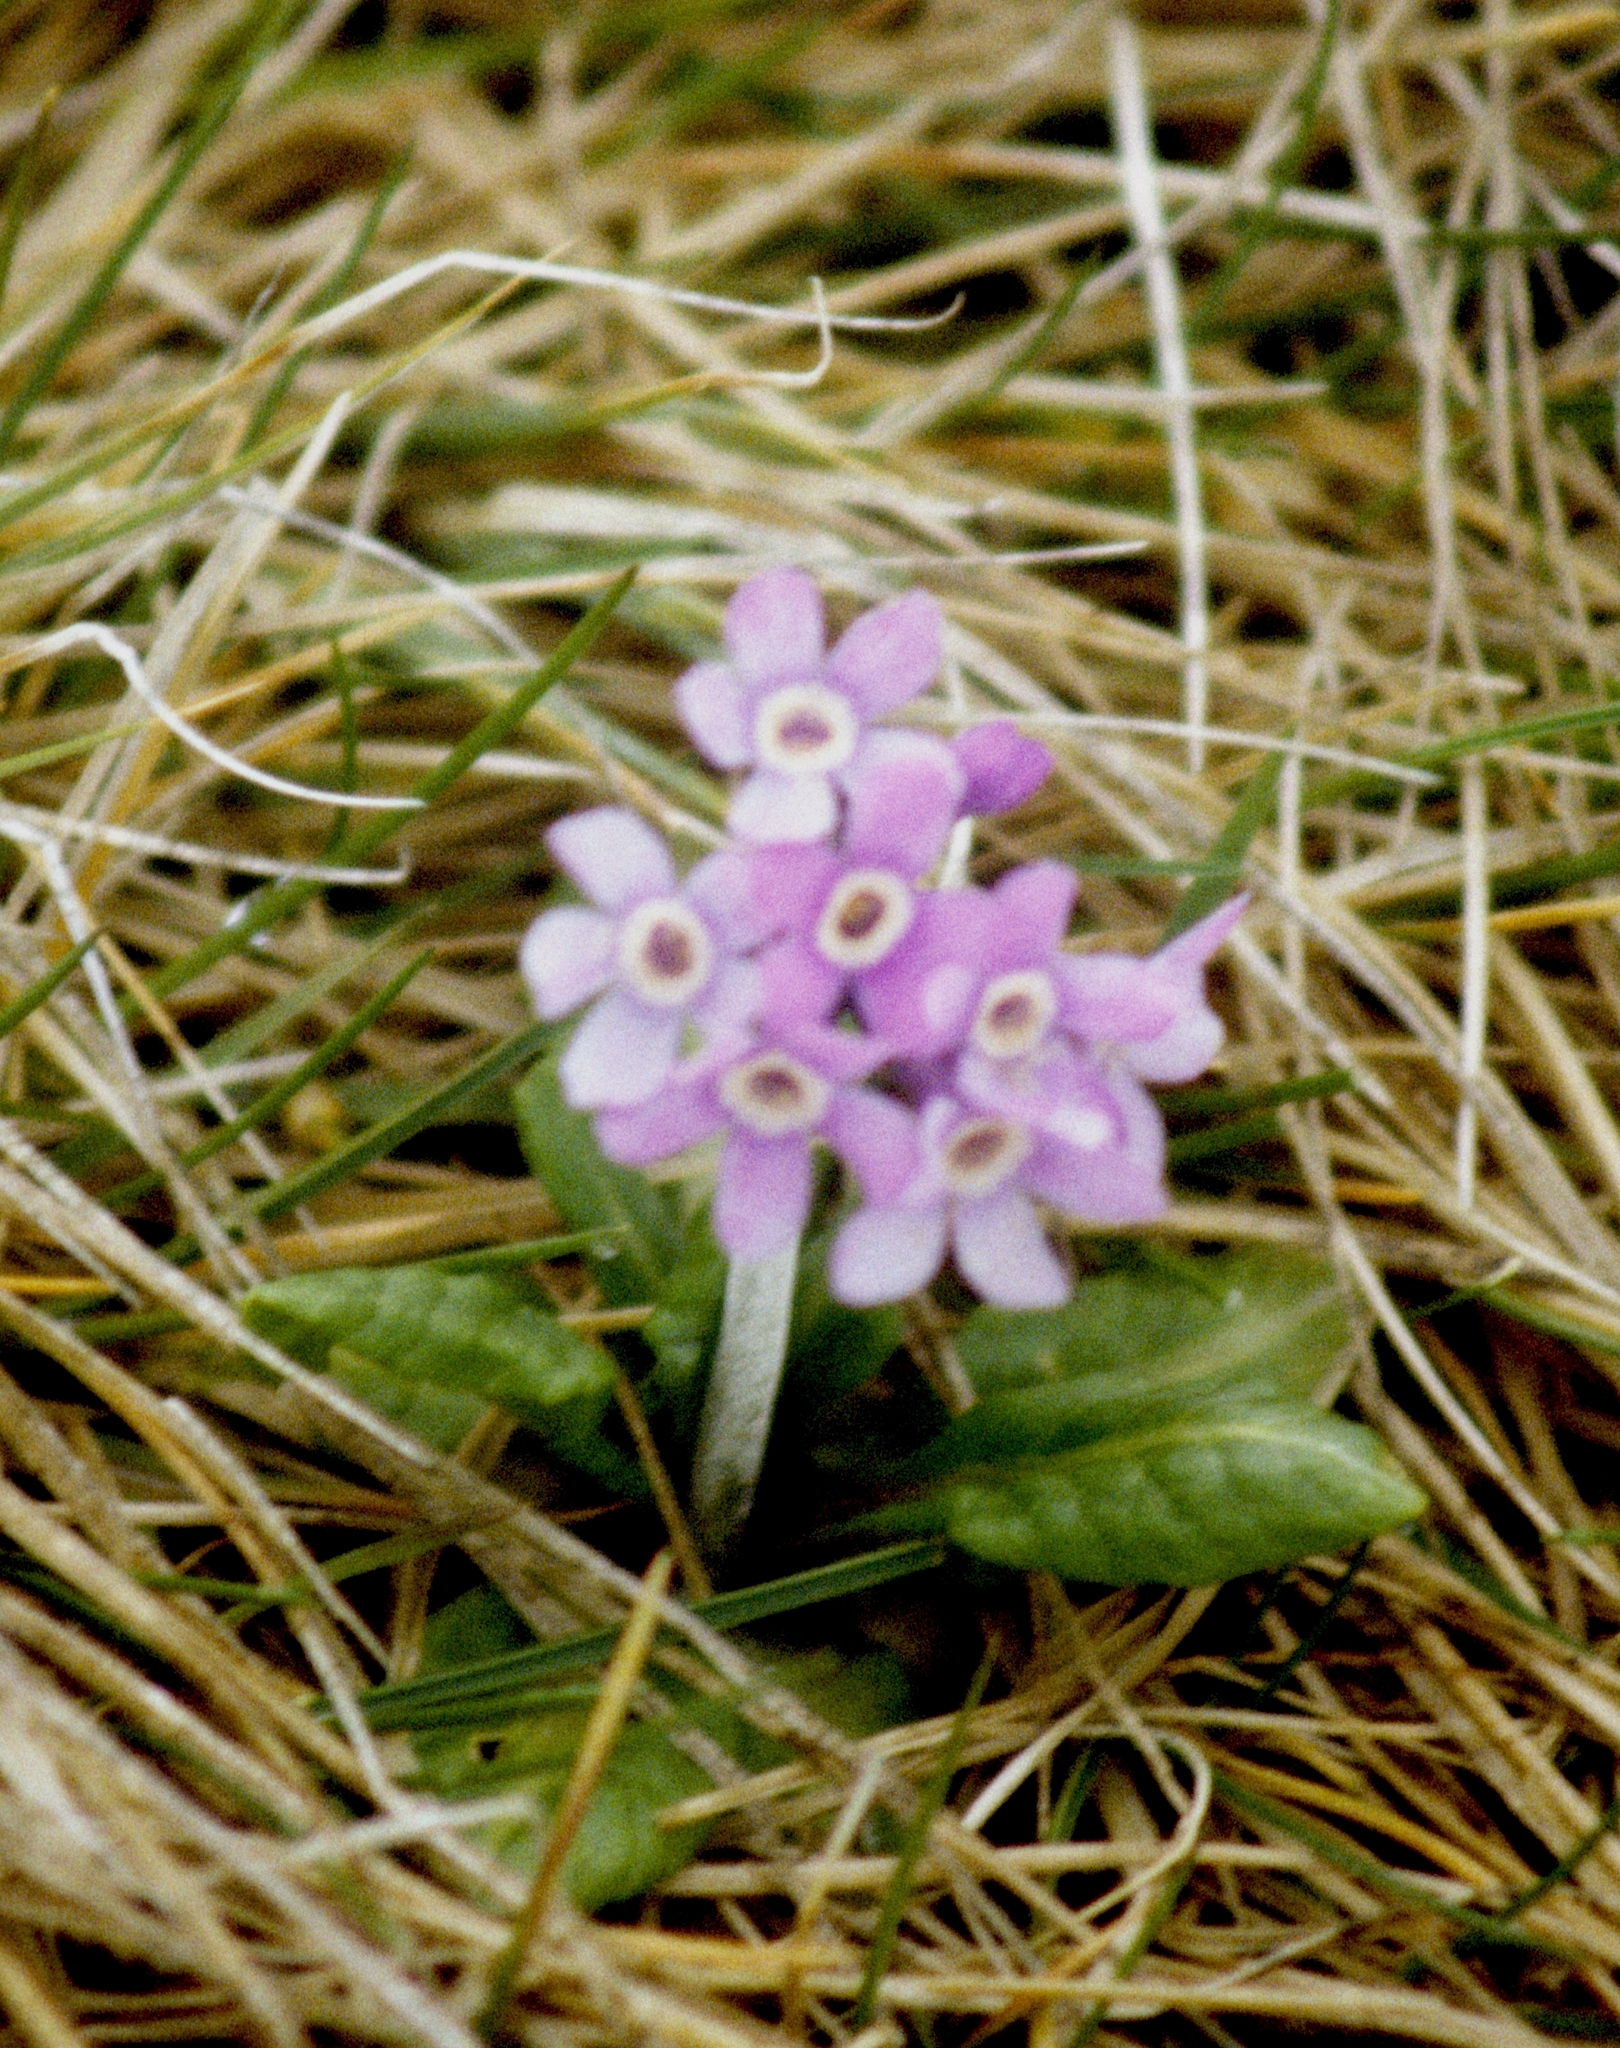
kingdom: Plantae
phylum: Tracheophyta
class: Magnoliopsida
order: Ericales
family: Primulaceae
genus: Primula
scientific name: Primula tschuktschorum
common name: Chukchi primrose
